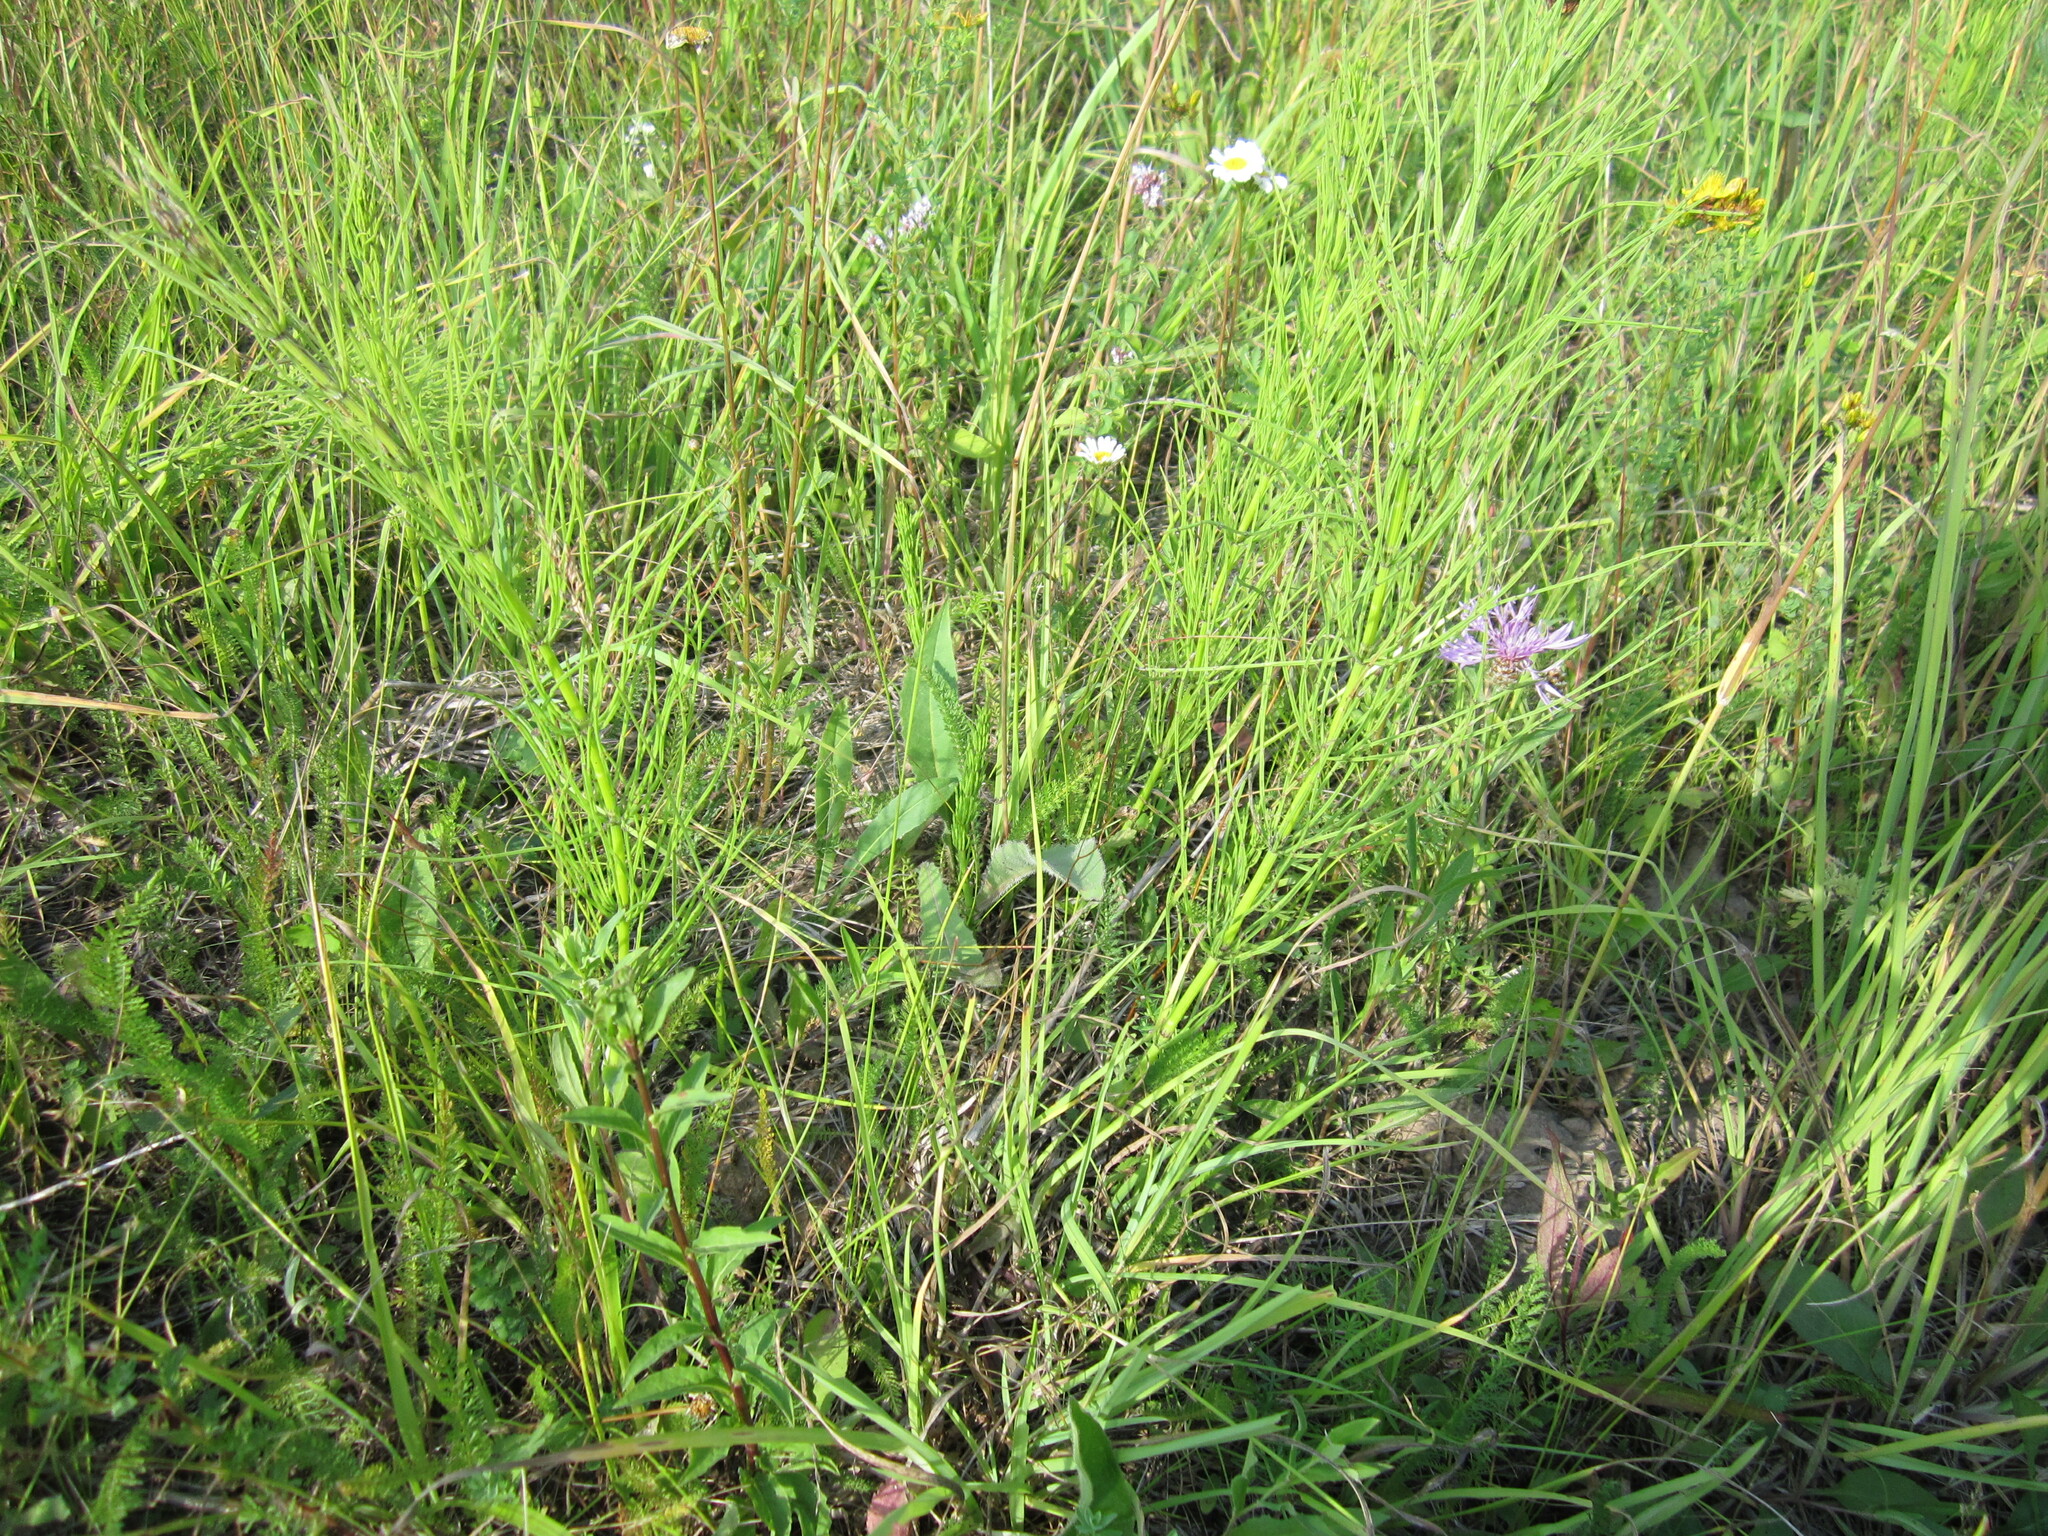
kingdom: Plantae
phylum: Tracheophyta
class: Polypodiopsida
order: Equisetales
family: Equisetaceae
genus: Equisetum
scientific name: Equisetum arvense
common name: Field horsetail
